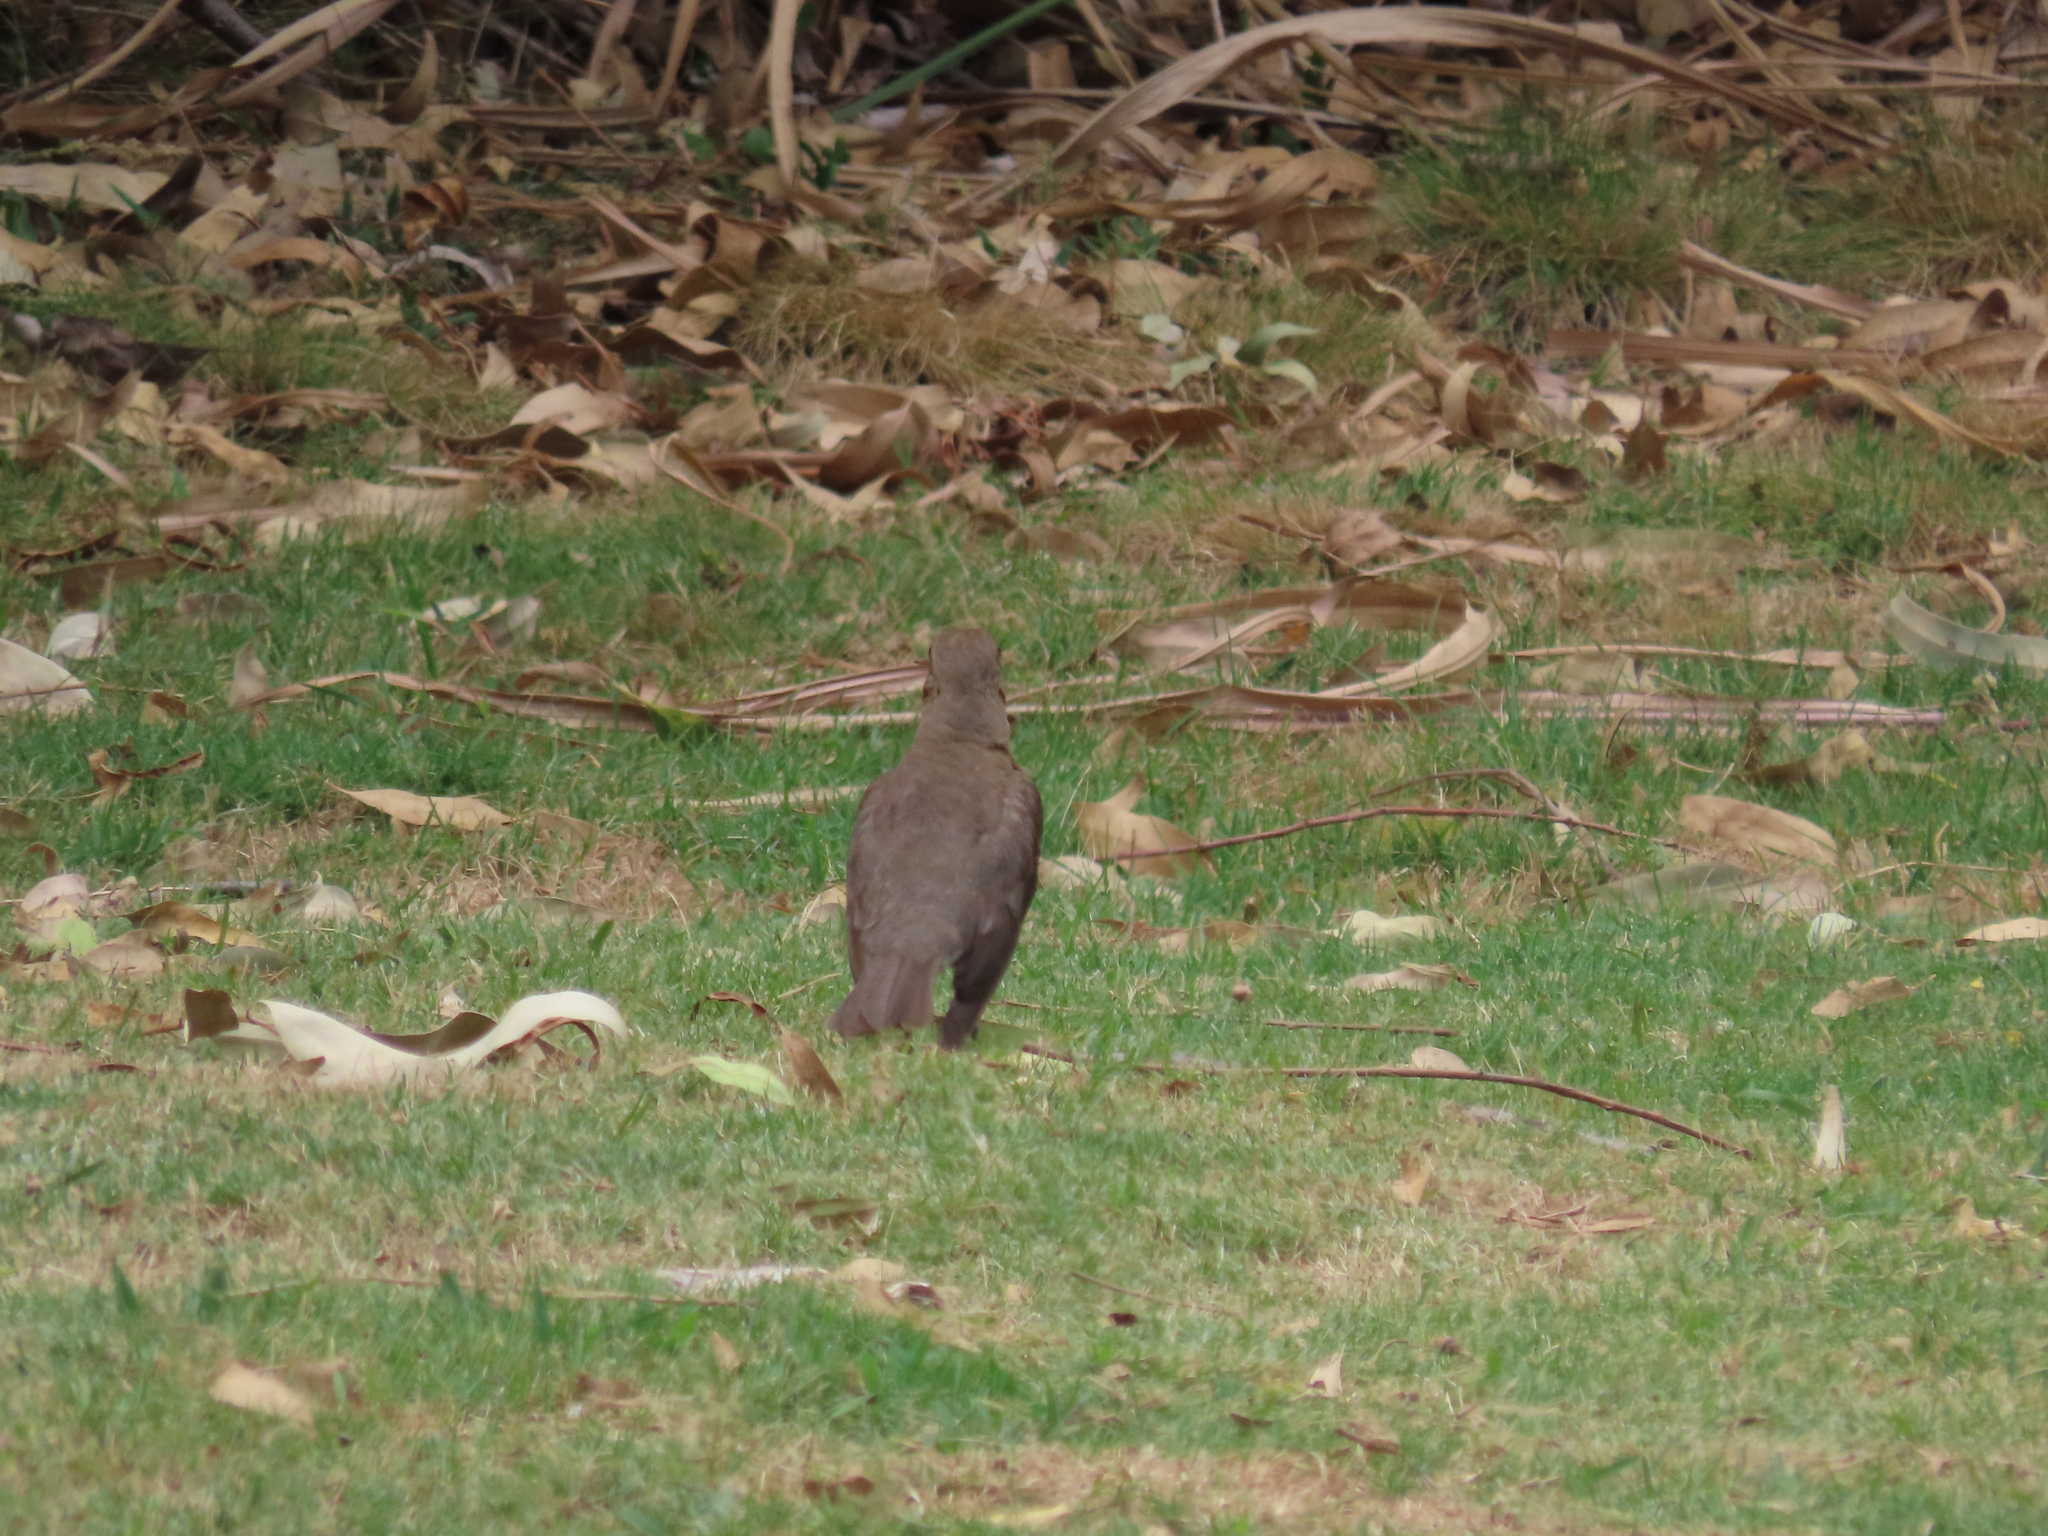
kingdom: Animalia
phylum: Chordata
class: Aves
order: Passeriformes
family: Turdidae
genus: Turdus
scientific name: Turdus amaurochalinus
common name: Creamy-bellied thrush
